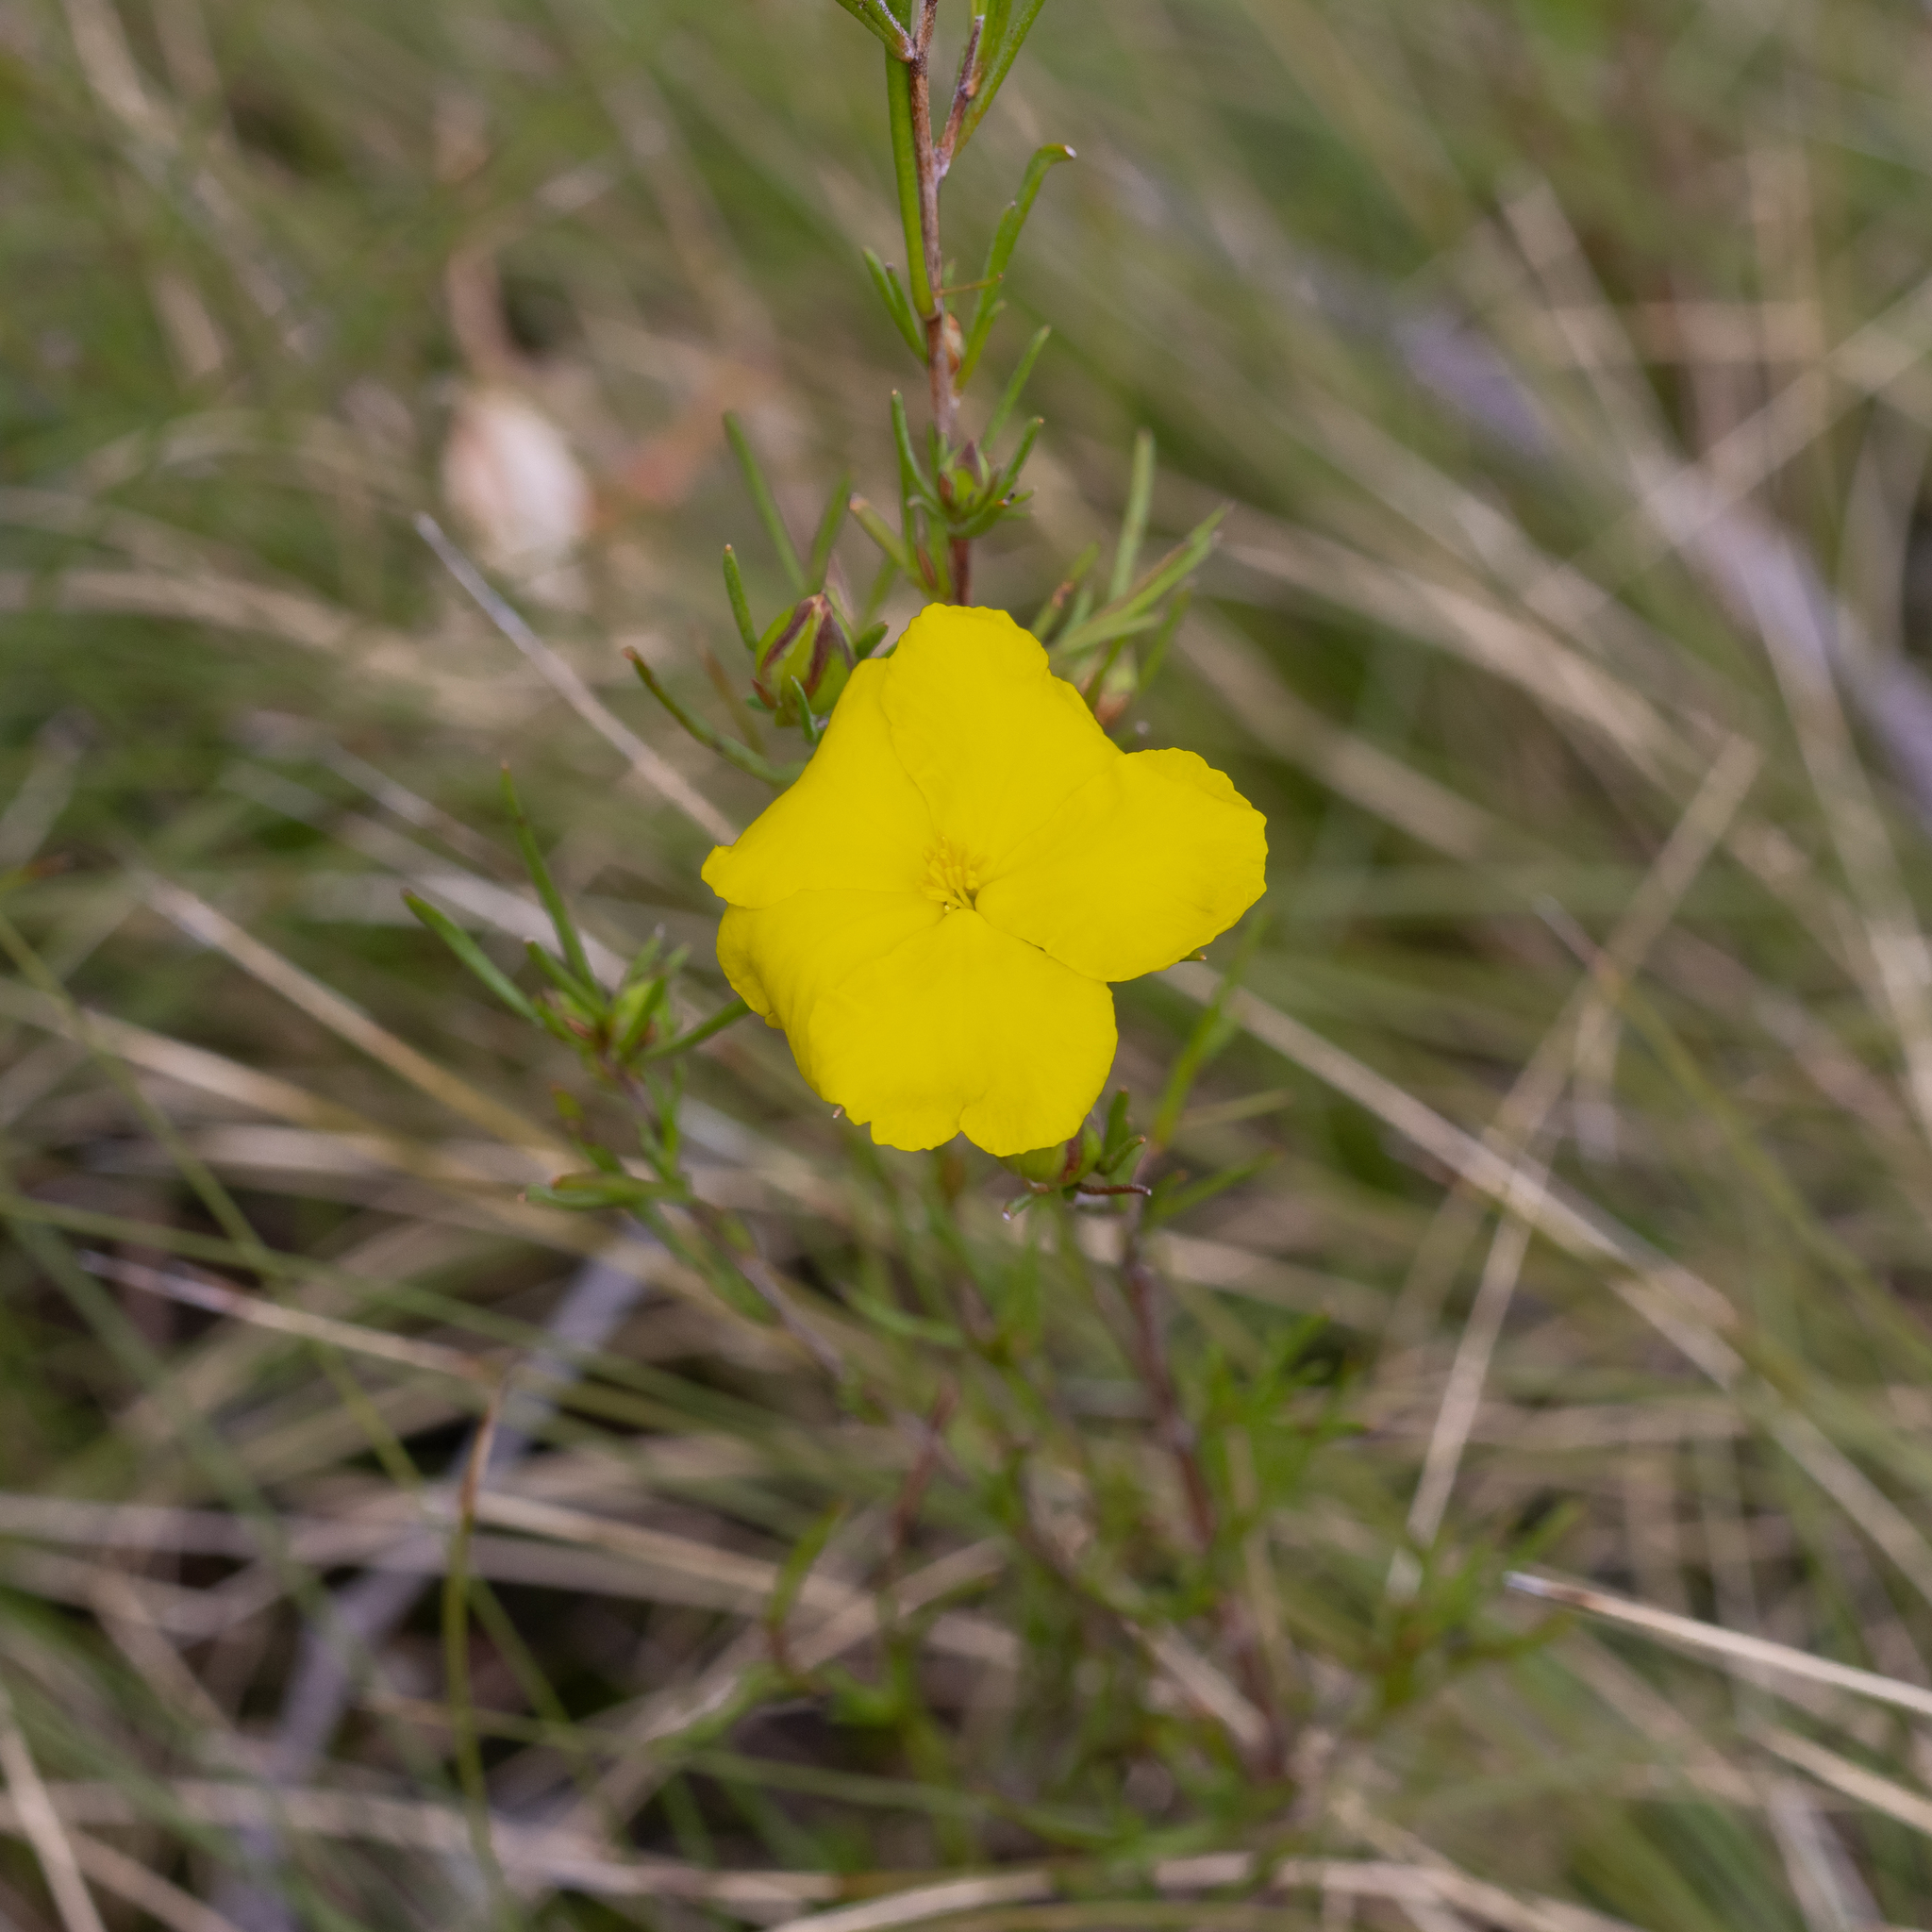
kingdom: Plantae
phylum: Tracheophyta
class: Magnoliopsida
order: Dilleniales
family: Dilleniaceae
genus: Hibbertia
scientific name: Hibbertia virgata
